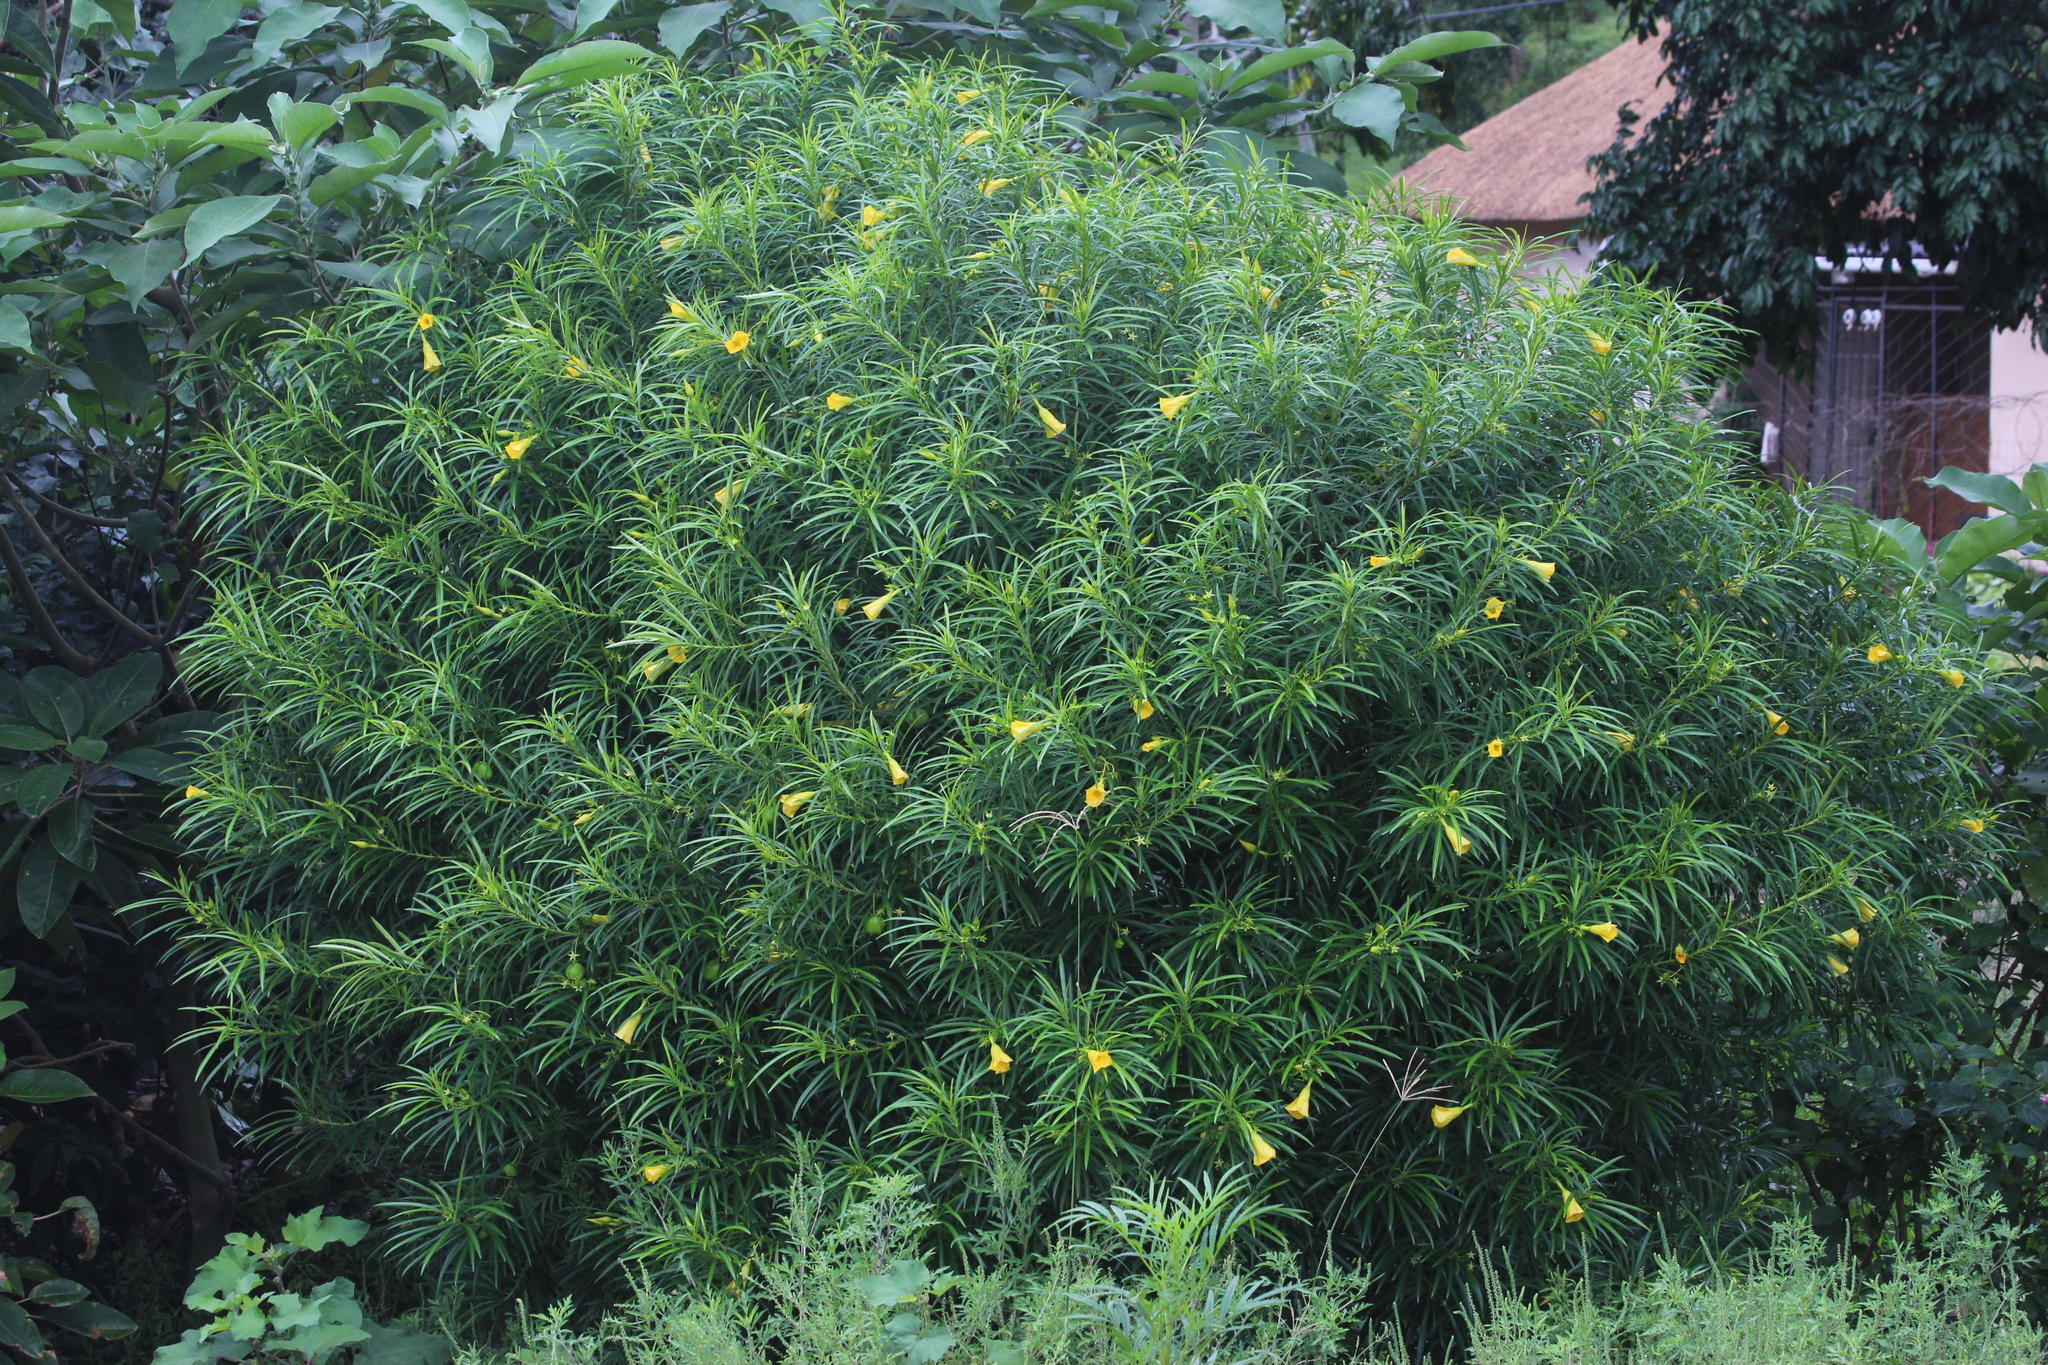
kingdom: Plantae
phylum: Tracheophyta
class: Magnoliopsida
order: Gentianales
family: Apocynaceae
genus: Cascabela
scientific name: Cascabela thevetia
